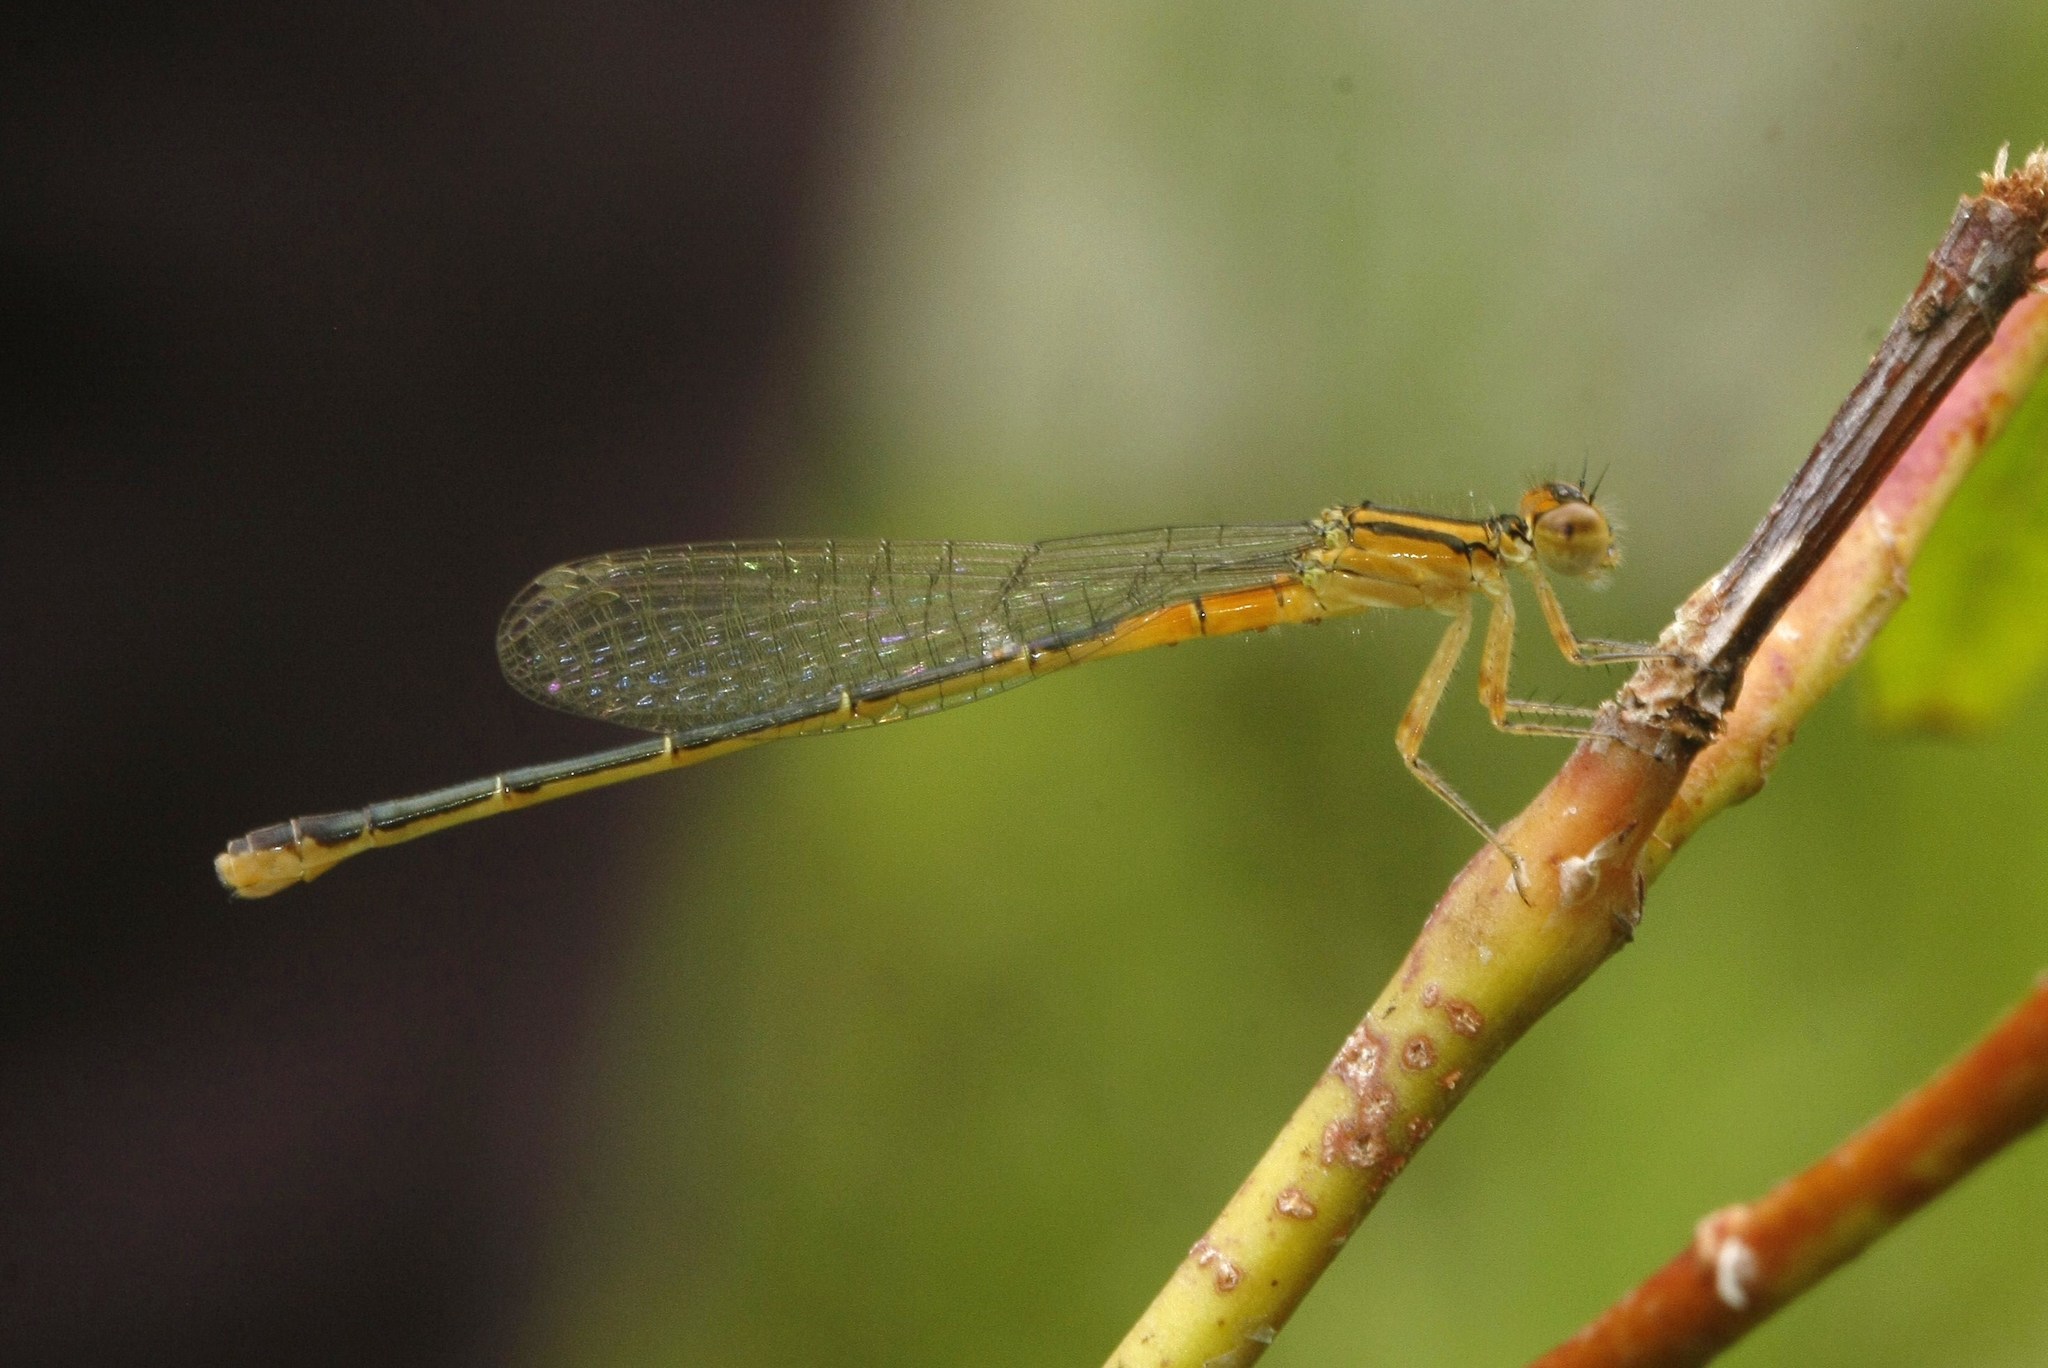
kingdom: Animalia
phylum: Arthropoda
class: Insecta
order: Odonata
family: Coenagrionidae
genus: Ischnura
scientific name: Ischnura verticalis
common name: Eastern forktail
